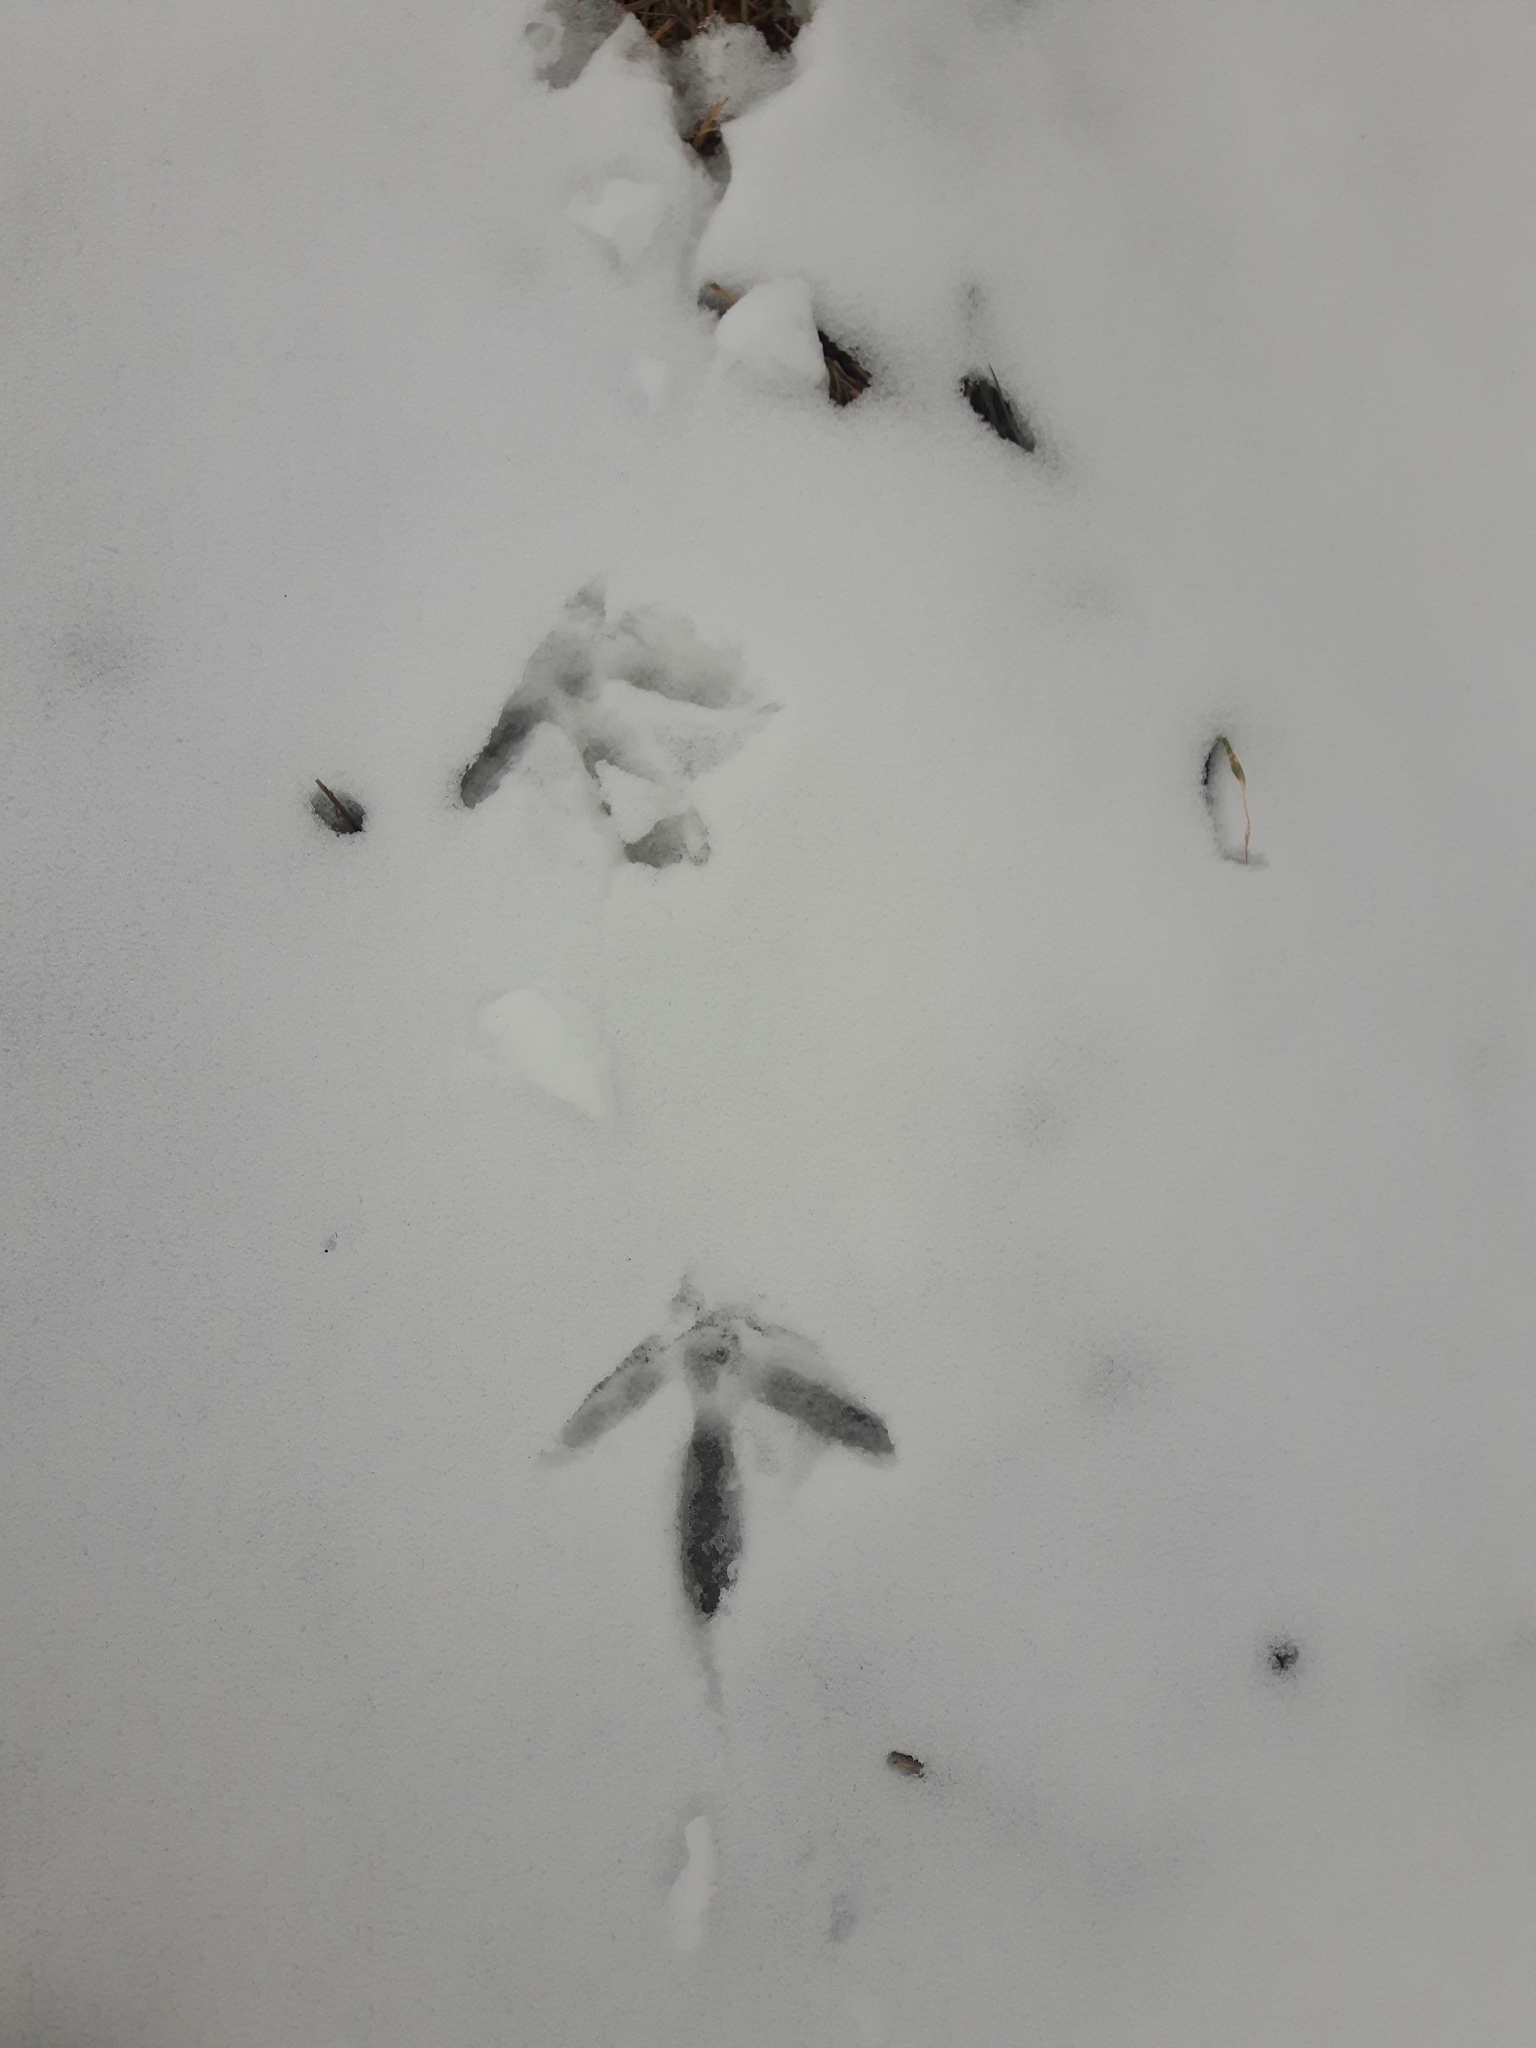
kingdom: Animalia
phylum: Chordata
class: Aves
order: Galliformes
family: Phasianidae
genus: Meleagris
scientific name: Meleagris gallopavo
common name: Wild turkey
